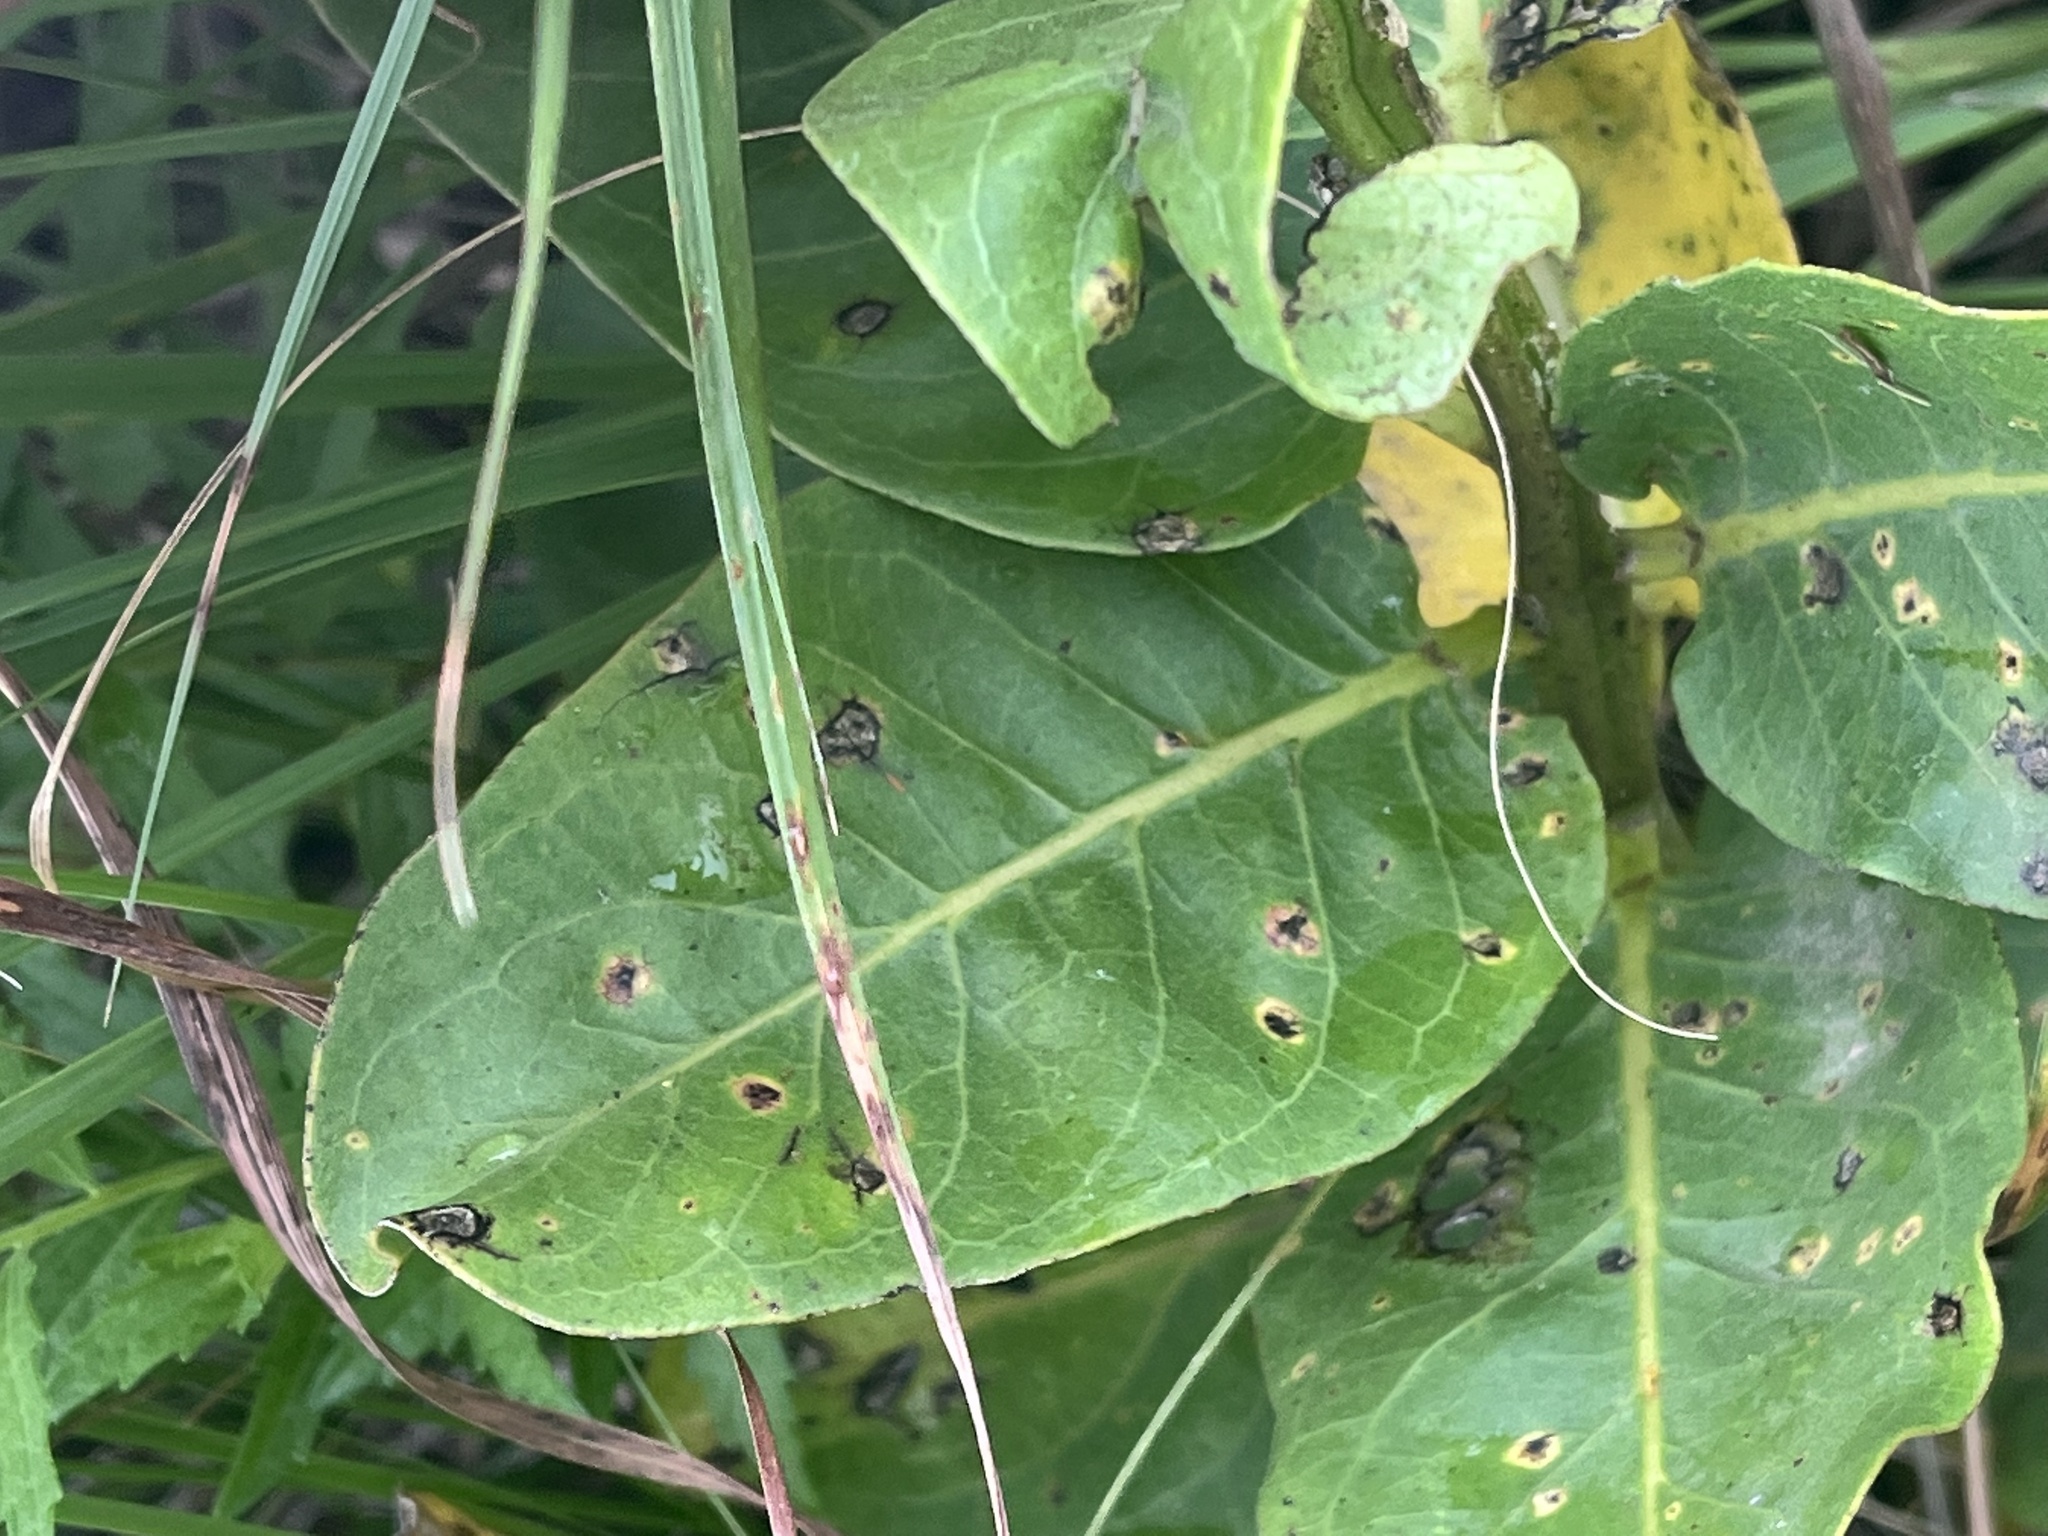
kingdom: Plantae
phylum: Tracheophyta
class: Magnoliopsida
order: Gentianales
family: Apocynaceae
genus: Asclepias
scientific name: Asclepias viridis
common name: Antelope-horns
